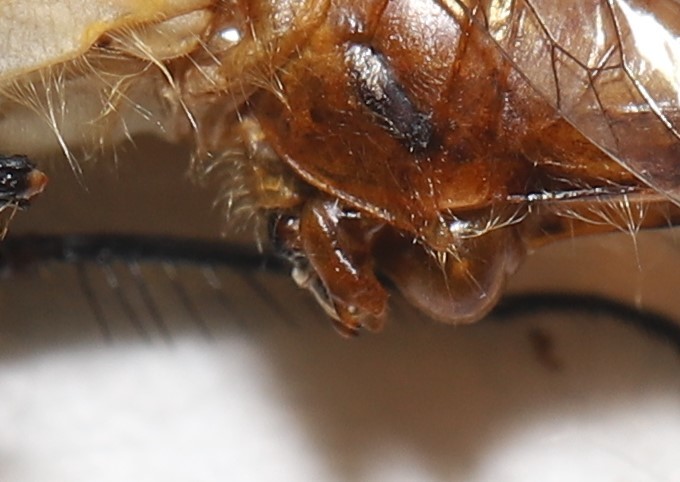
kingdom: Animalia
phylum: Arthropoda
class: Insecta
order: Odonata
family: Libellulidae
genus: Sympetrum
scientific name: Sympetrum obtrusum
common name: White-faced meadowhawk
